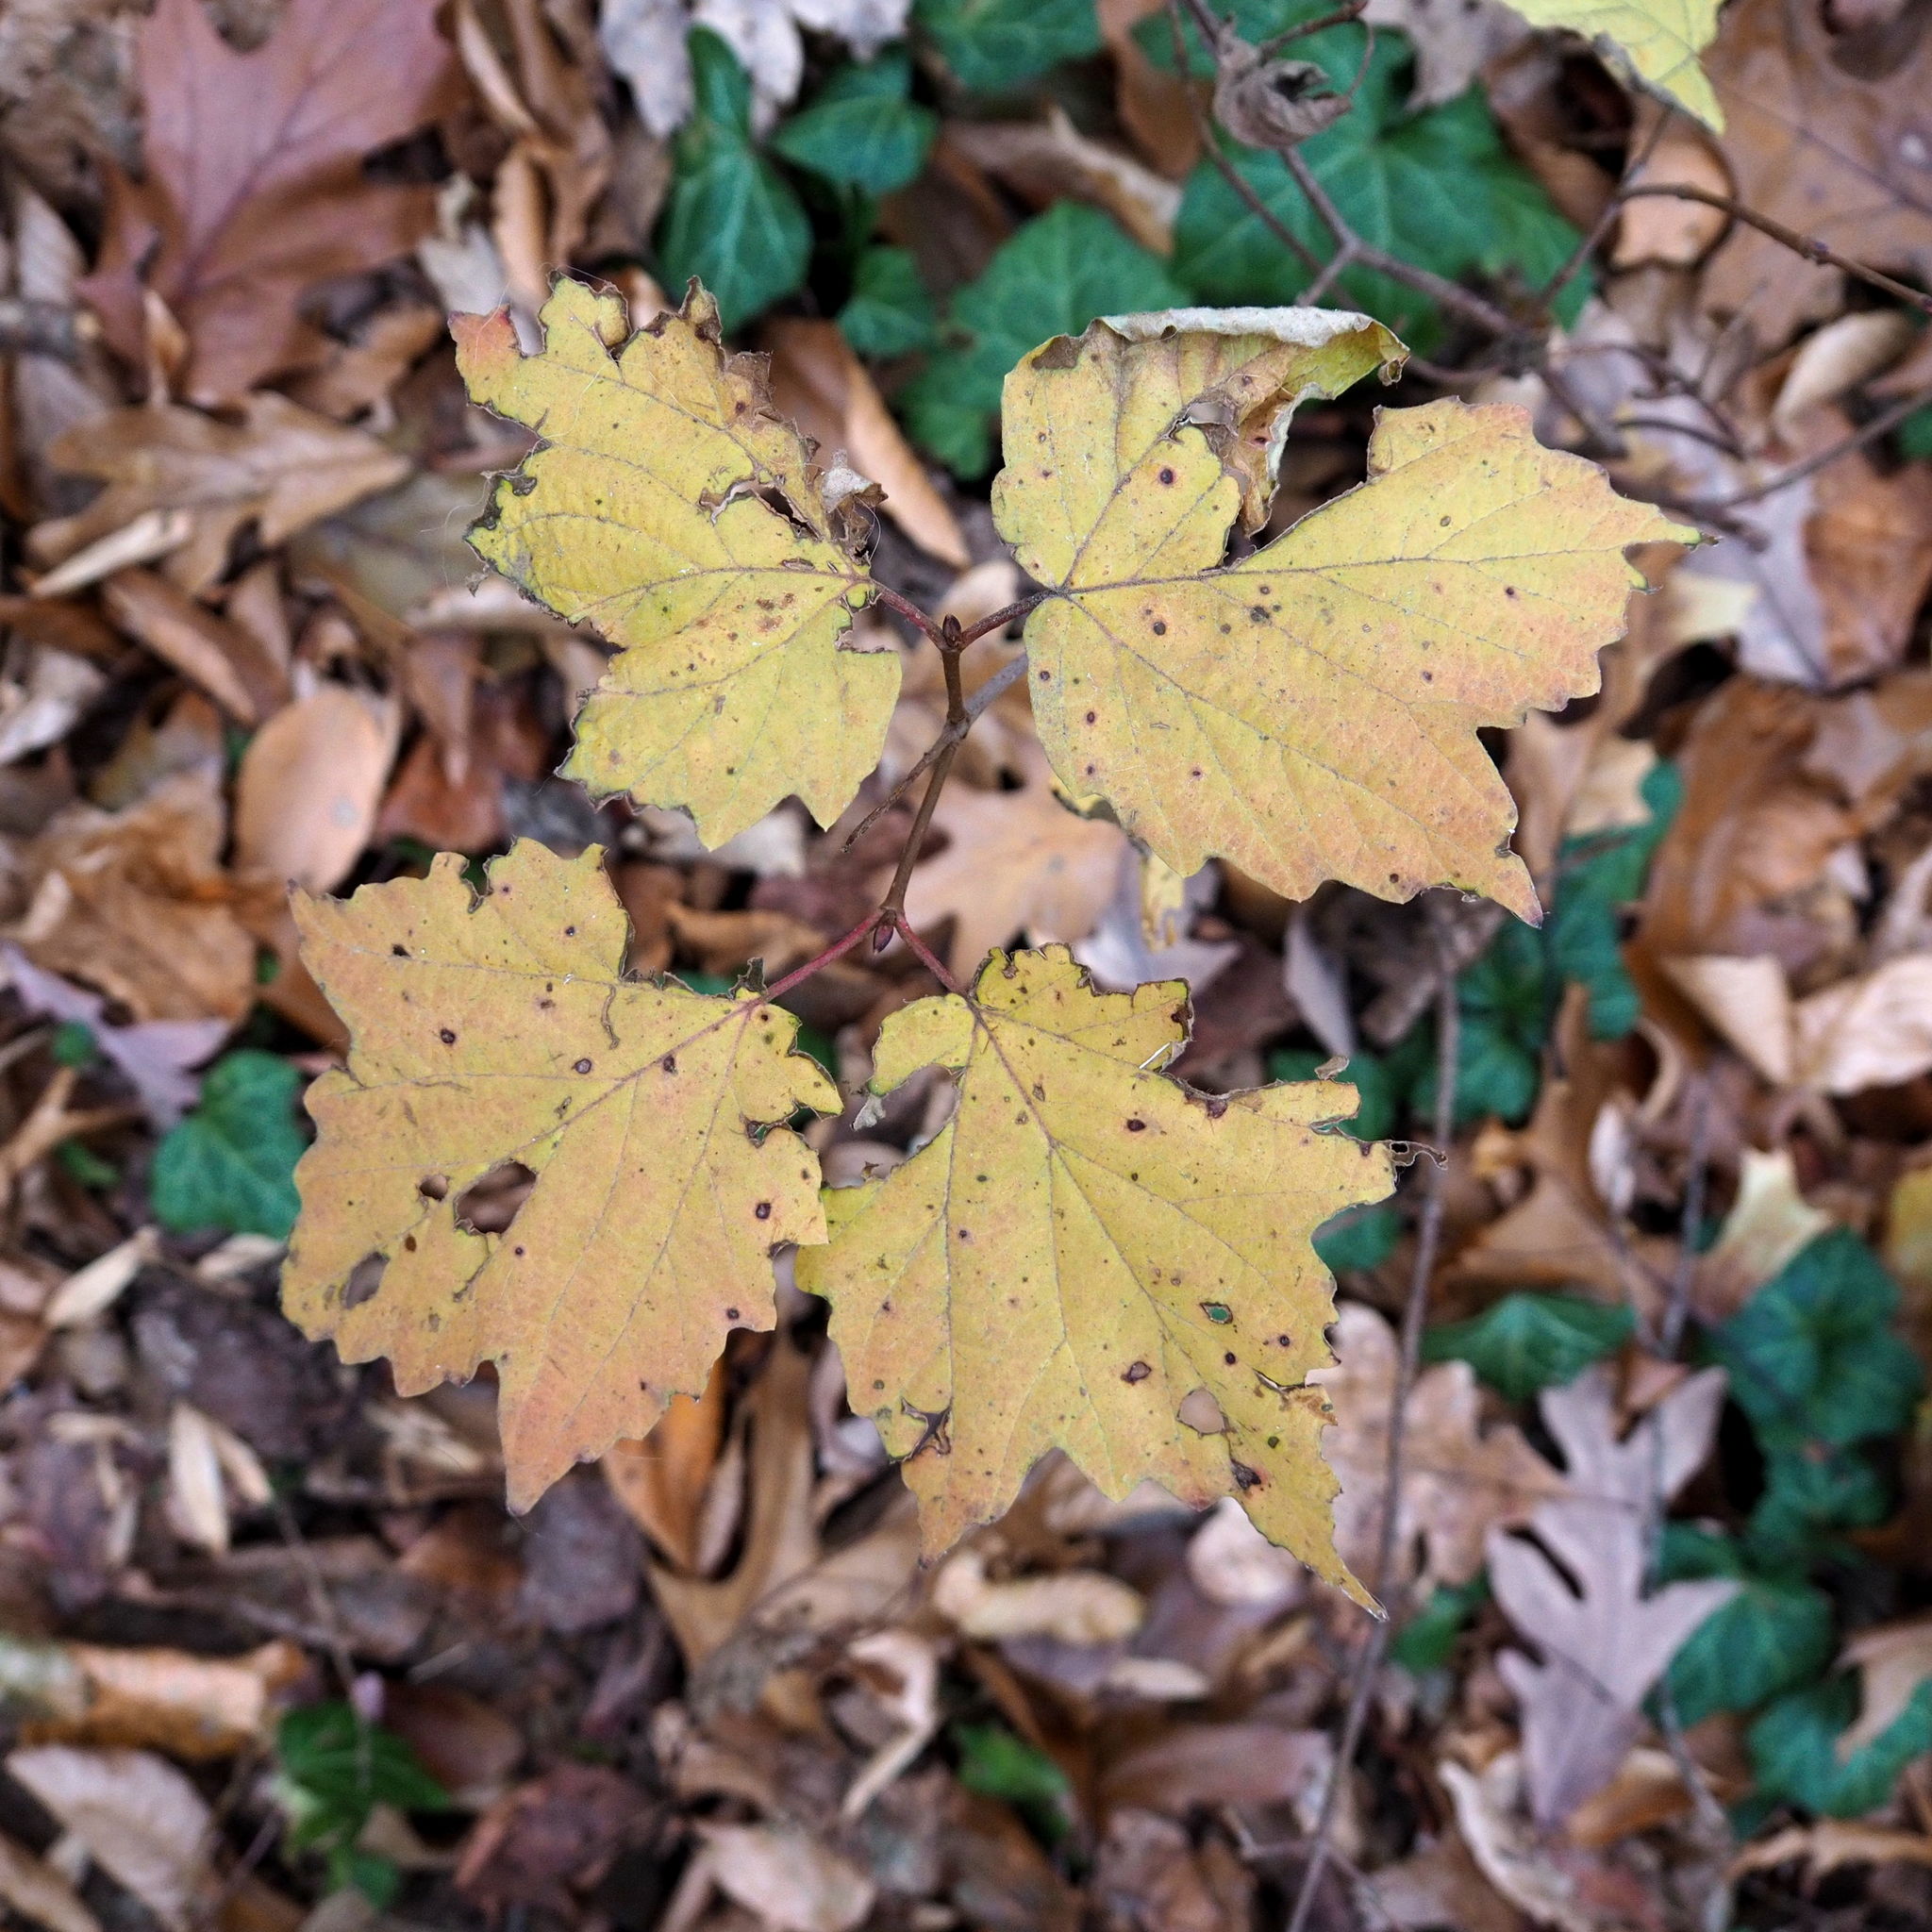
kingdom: Plantae
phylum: Tracheophyta
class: Magnoliopsida
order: Dipsacales
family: Viburnaceae
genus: Viburnum
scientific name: Viburnum acerifolium
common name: Dockmackie
